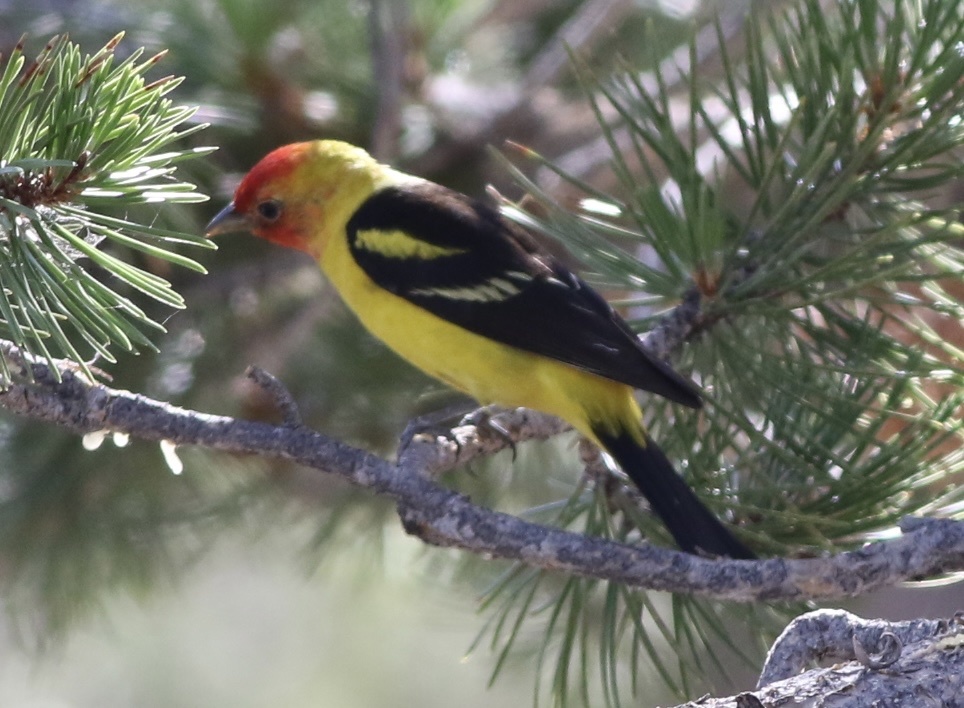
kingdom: Animalia
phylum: Chordata
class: Aves
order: Passeriformes
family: Cardinalidae
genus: Piranga
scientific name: Piranga ludoviciana
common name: Western tanager
